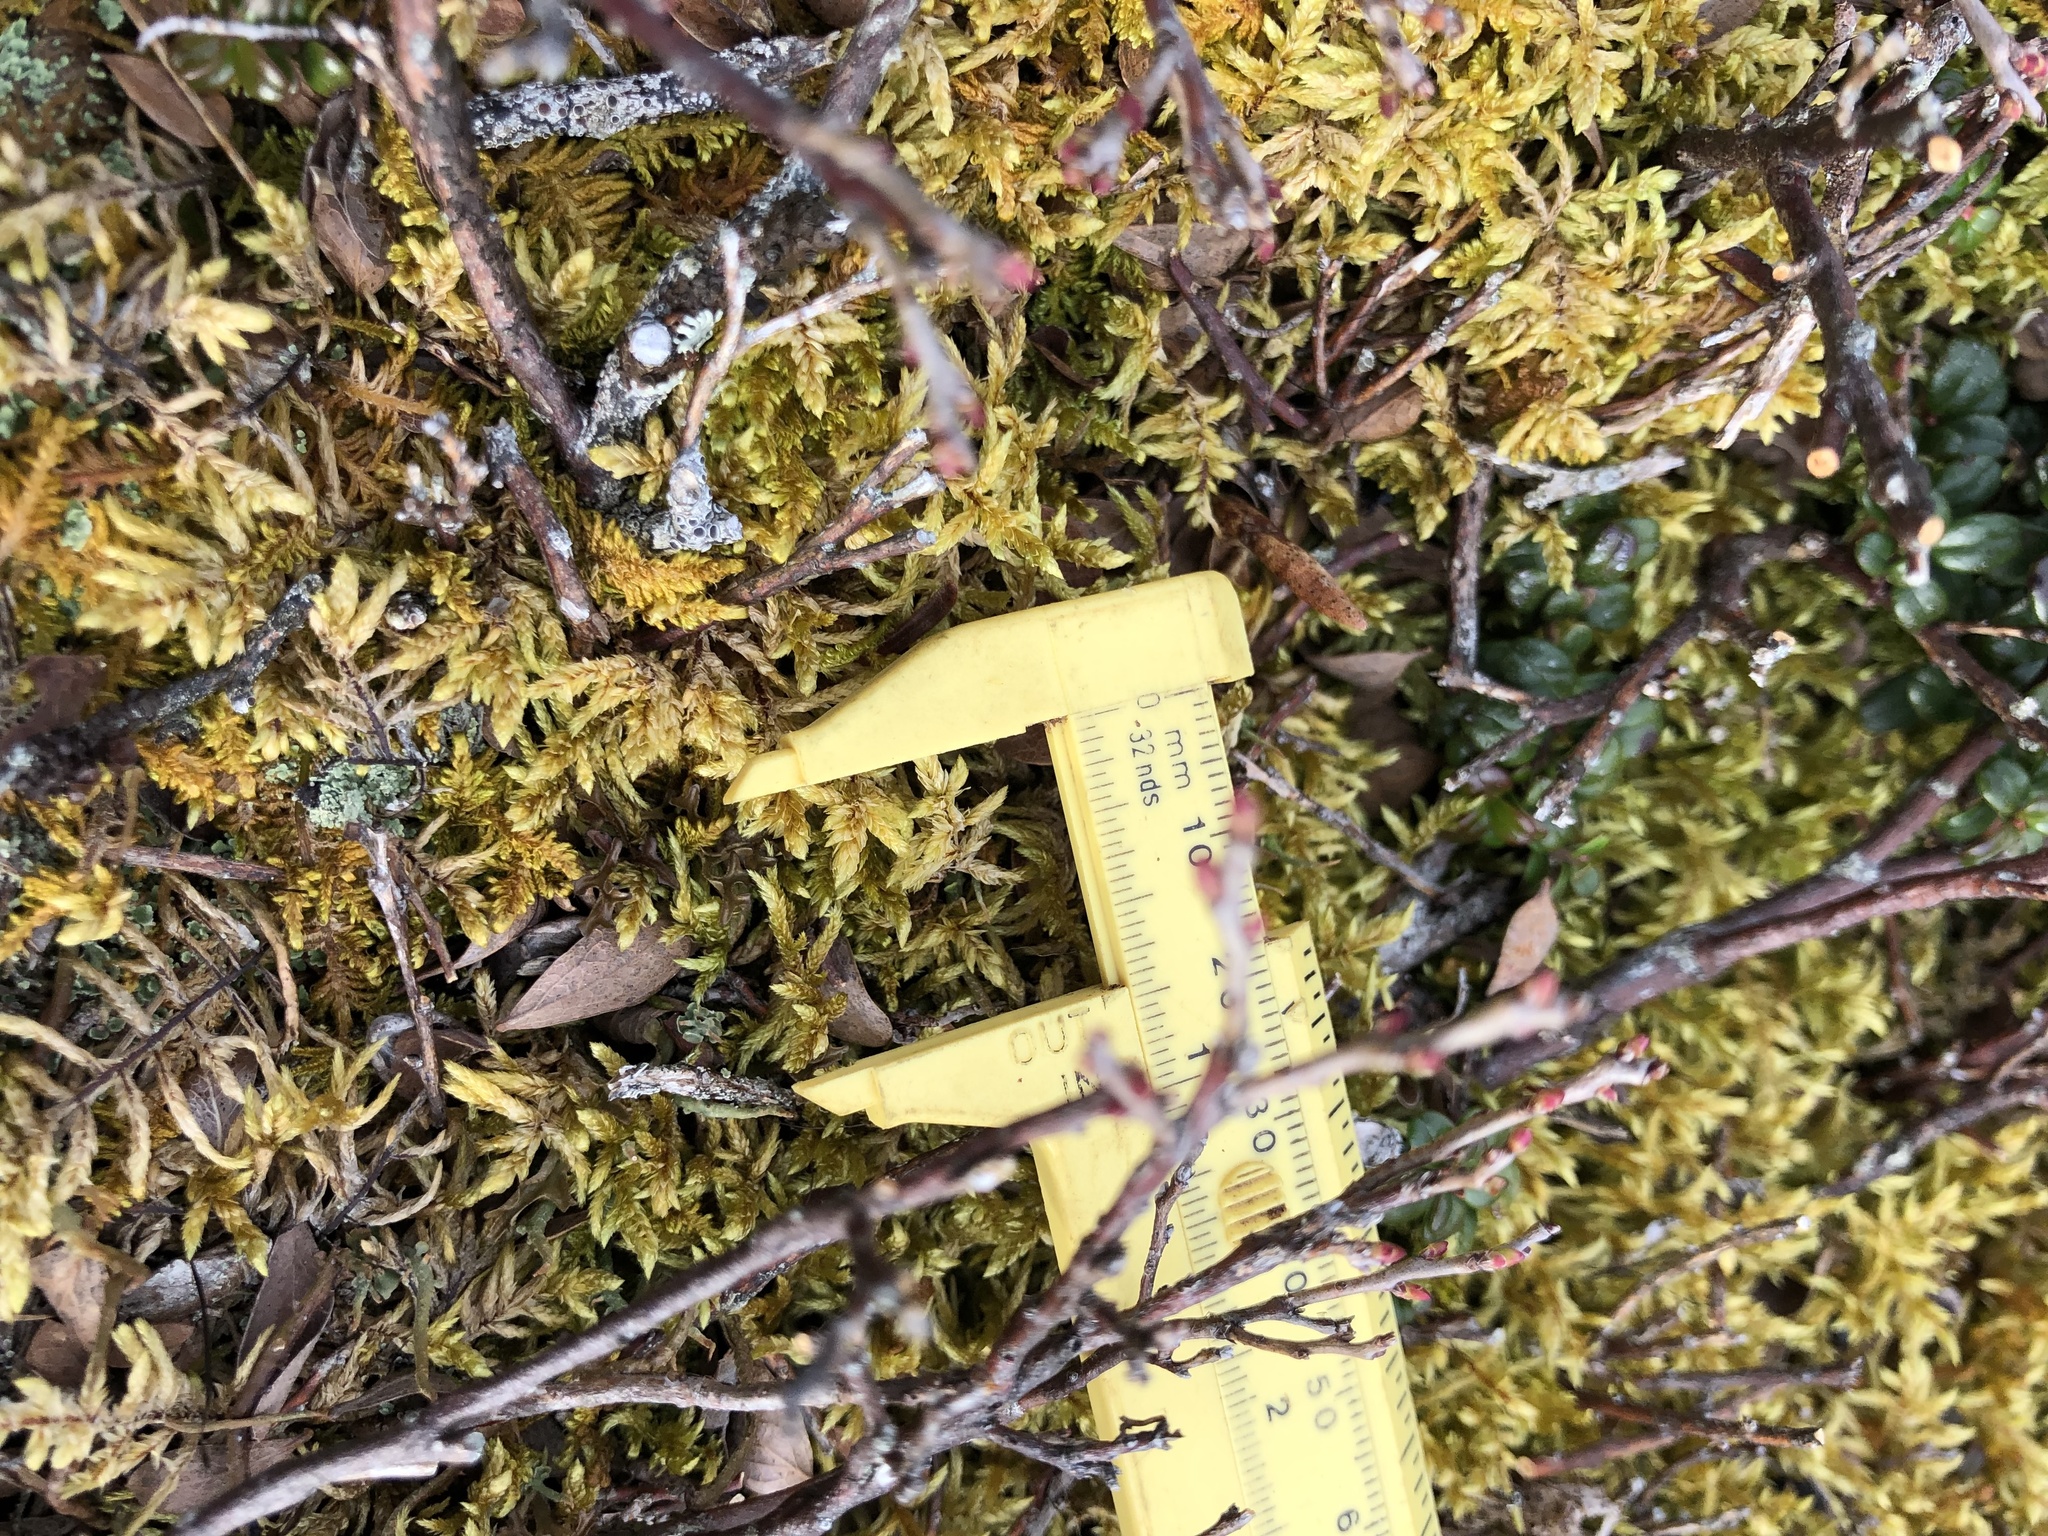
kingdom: Plantae
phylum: Bryophyta
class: Bryopsida
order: Hypnales
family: Hylocomiaceae
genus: Pleurozium
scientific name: Pleurozium schreberi
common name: Red-stemmed feather moss
